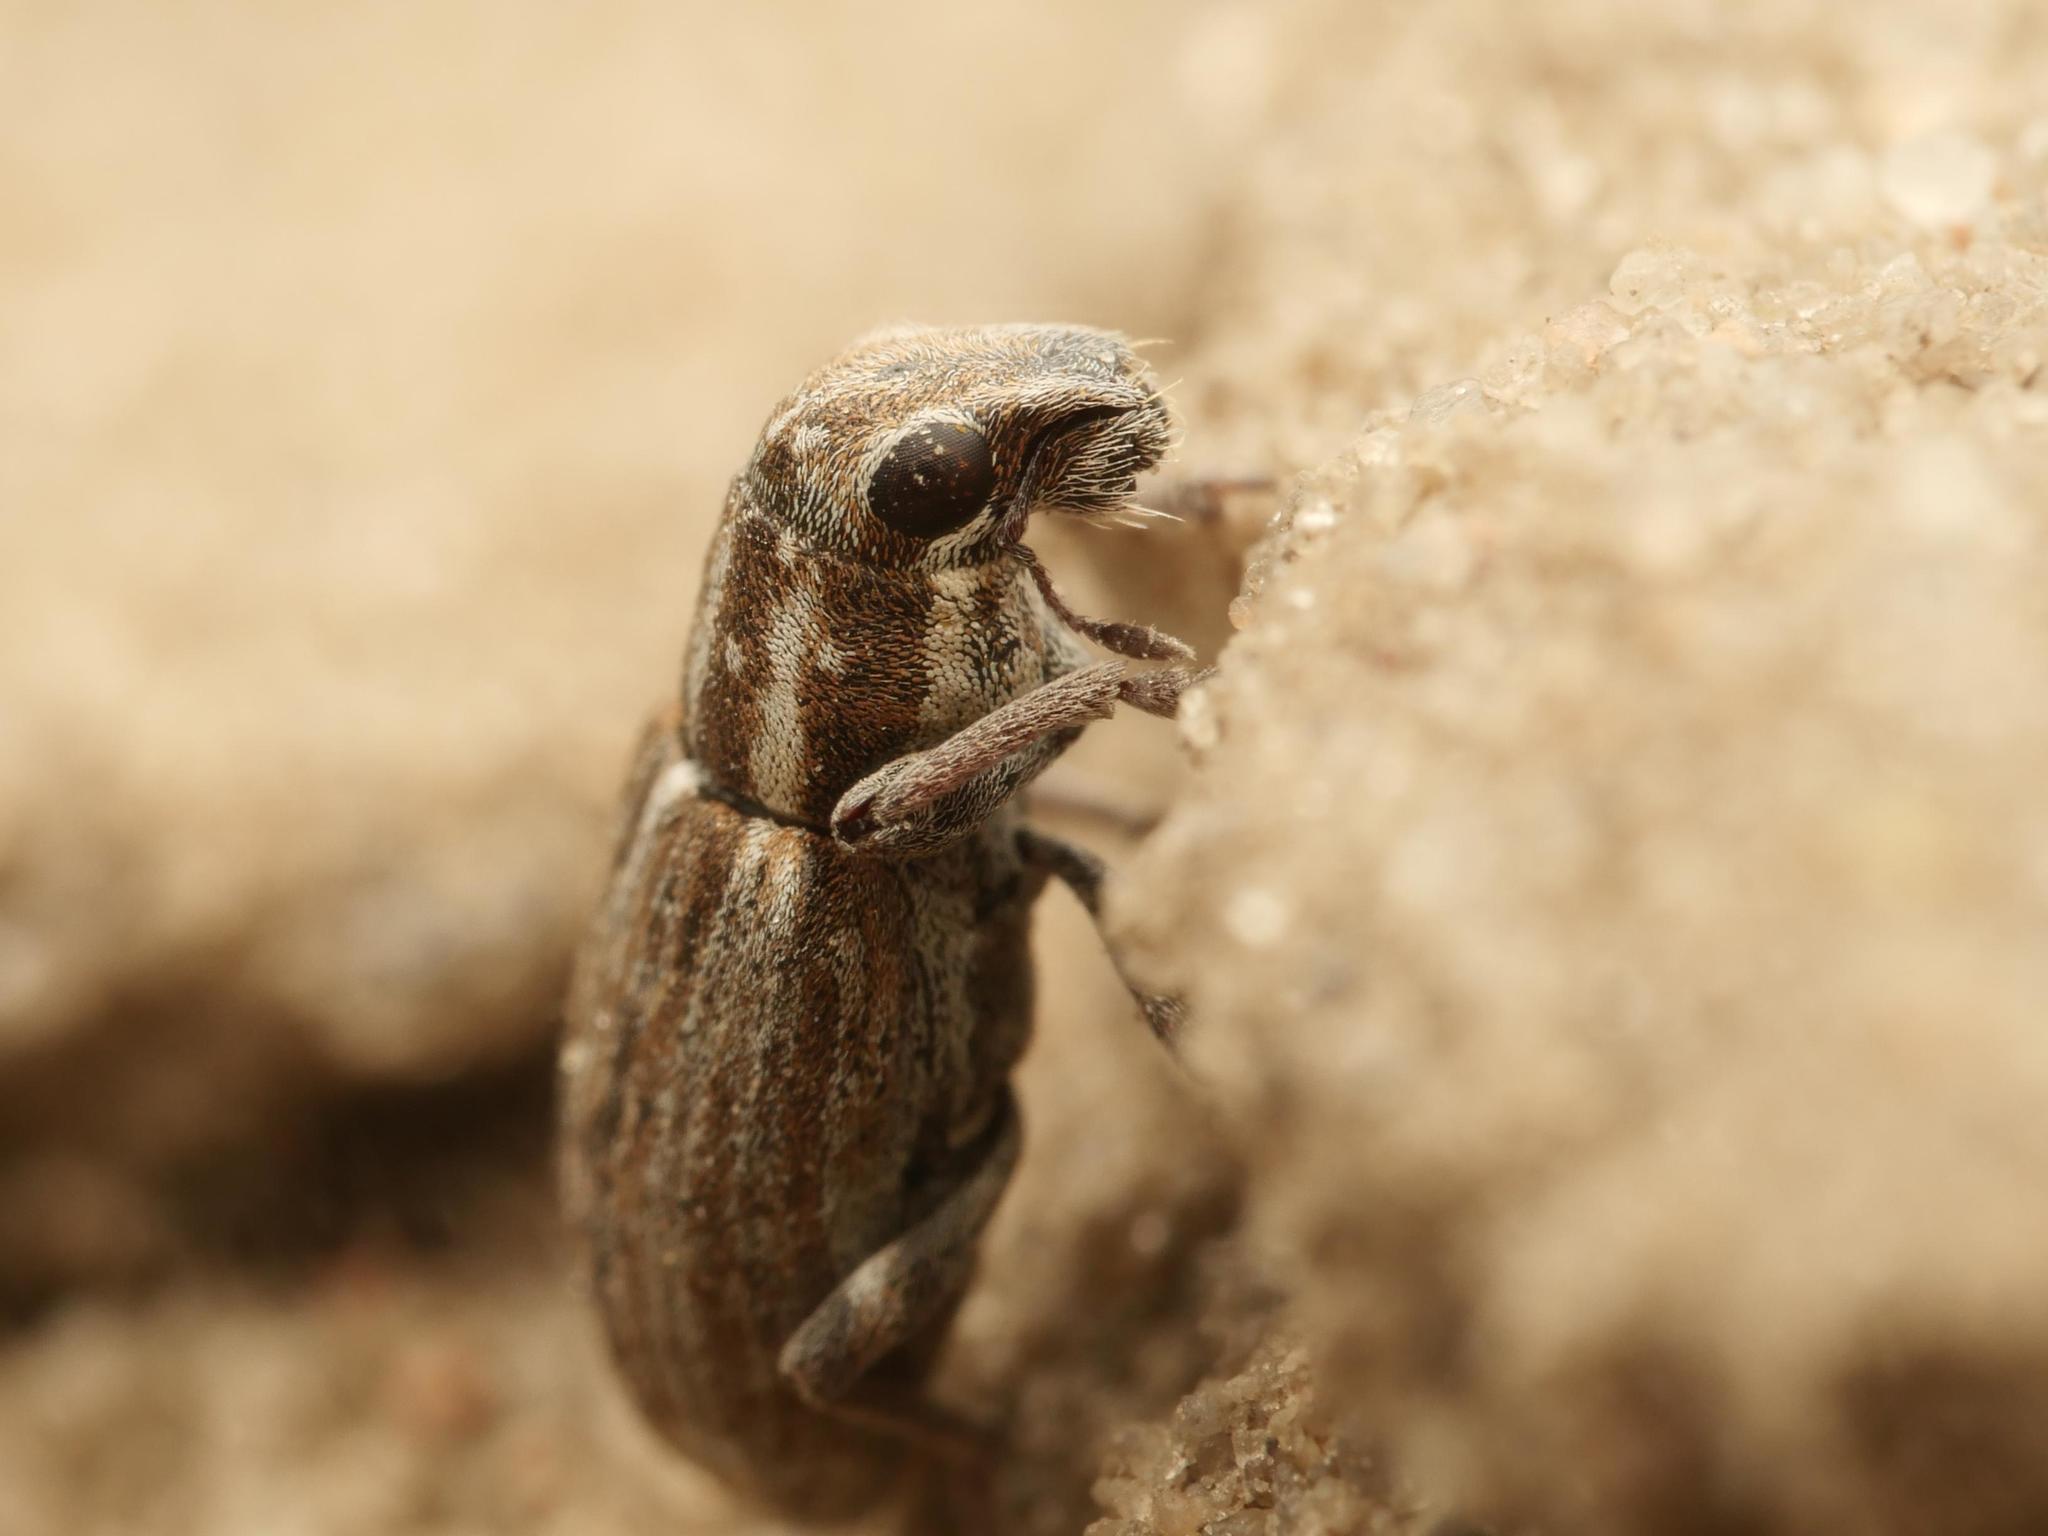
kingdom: Animalia
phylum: Arthropoda
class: Insecta
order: Coleoptera
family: Curculionidae
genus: Sitona
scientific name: Sitona puncticollis
